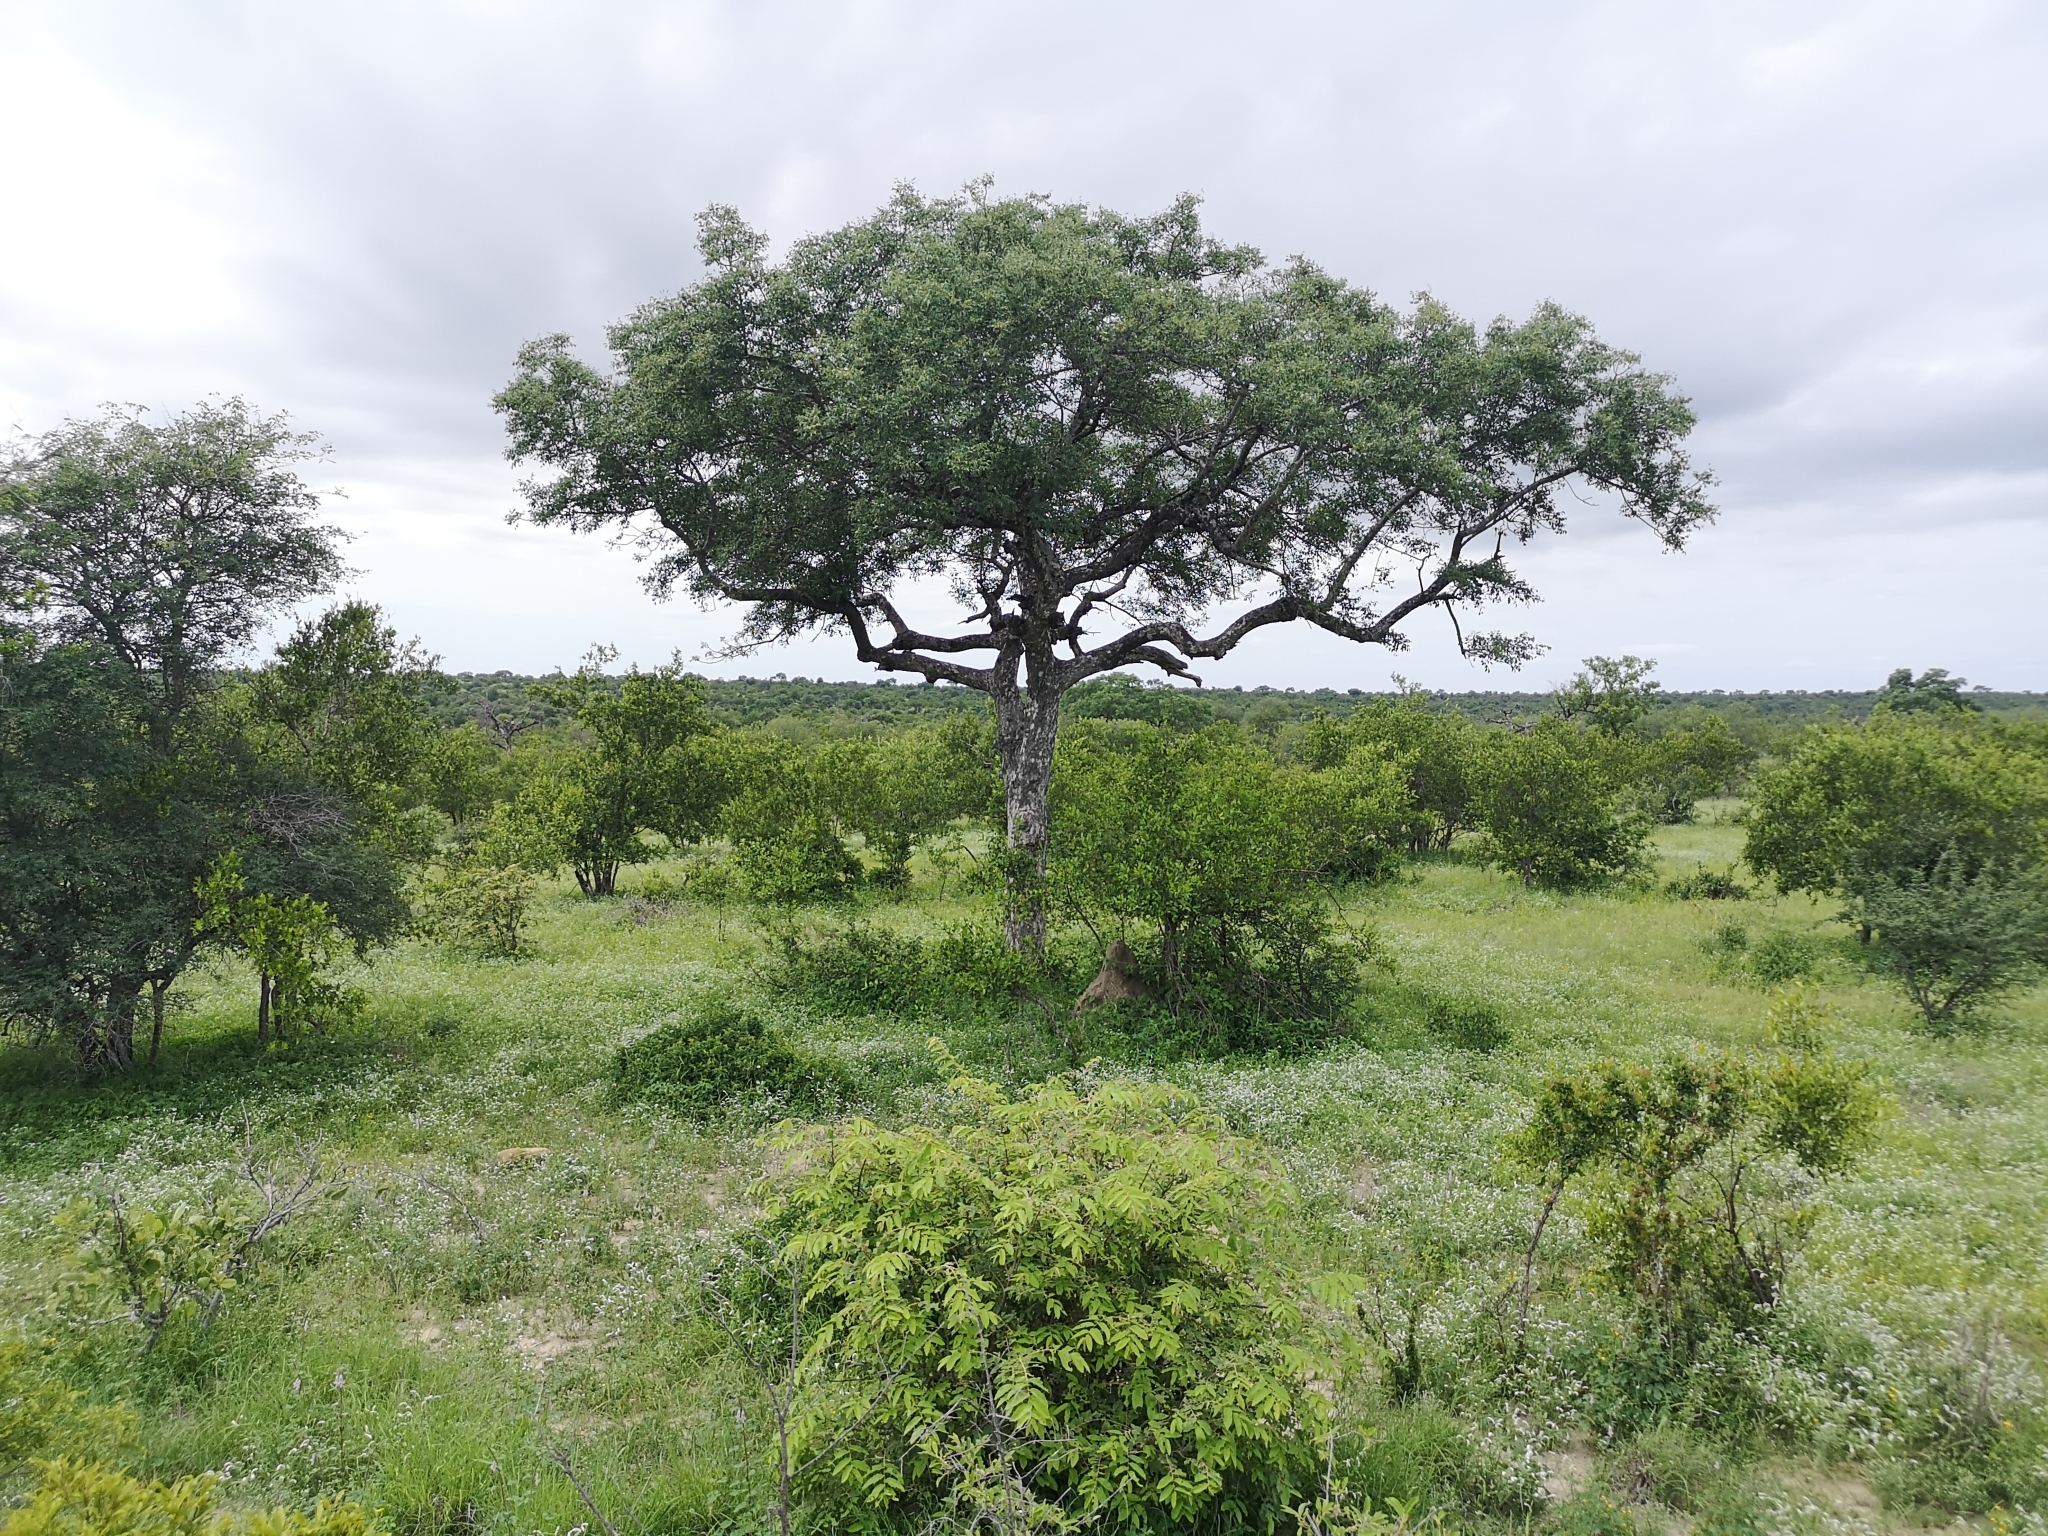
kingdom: Plantae
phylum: Tracheophyta
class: Magnoliopsida
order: Sapindales
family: Anacardiaceae
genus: Sclerocarya
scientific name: Sclerocarya birrea
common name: Marula
